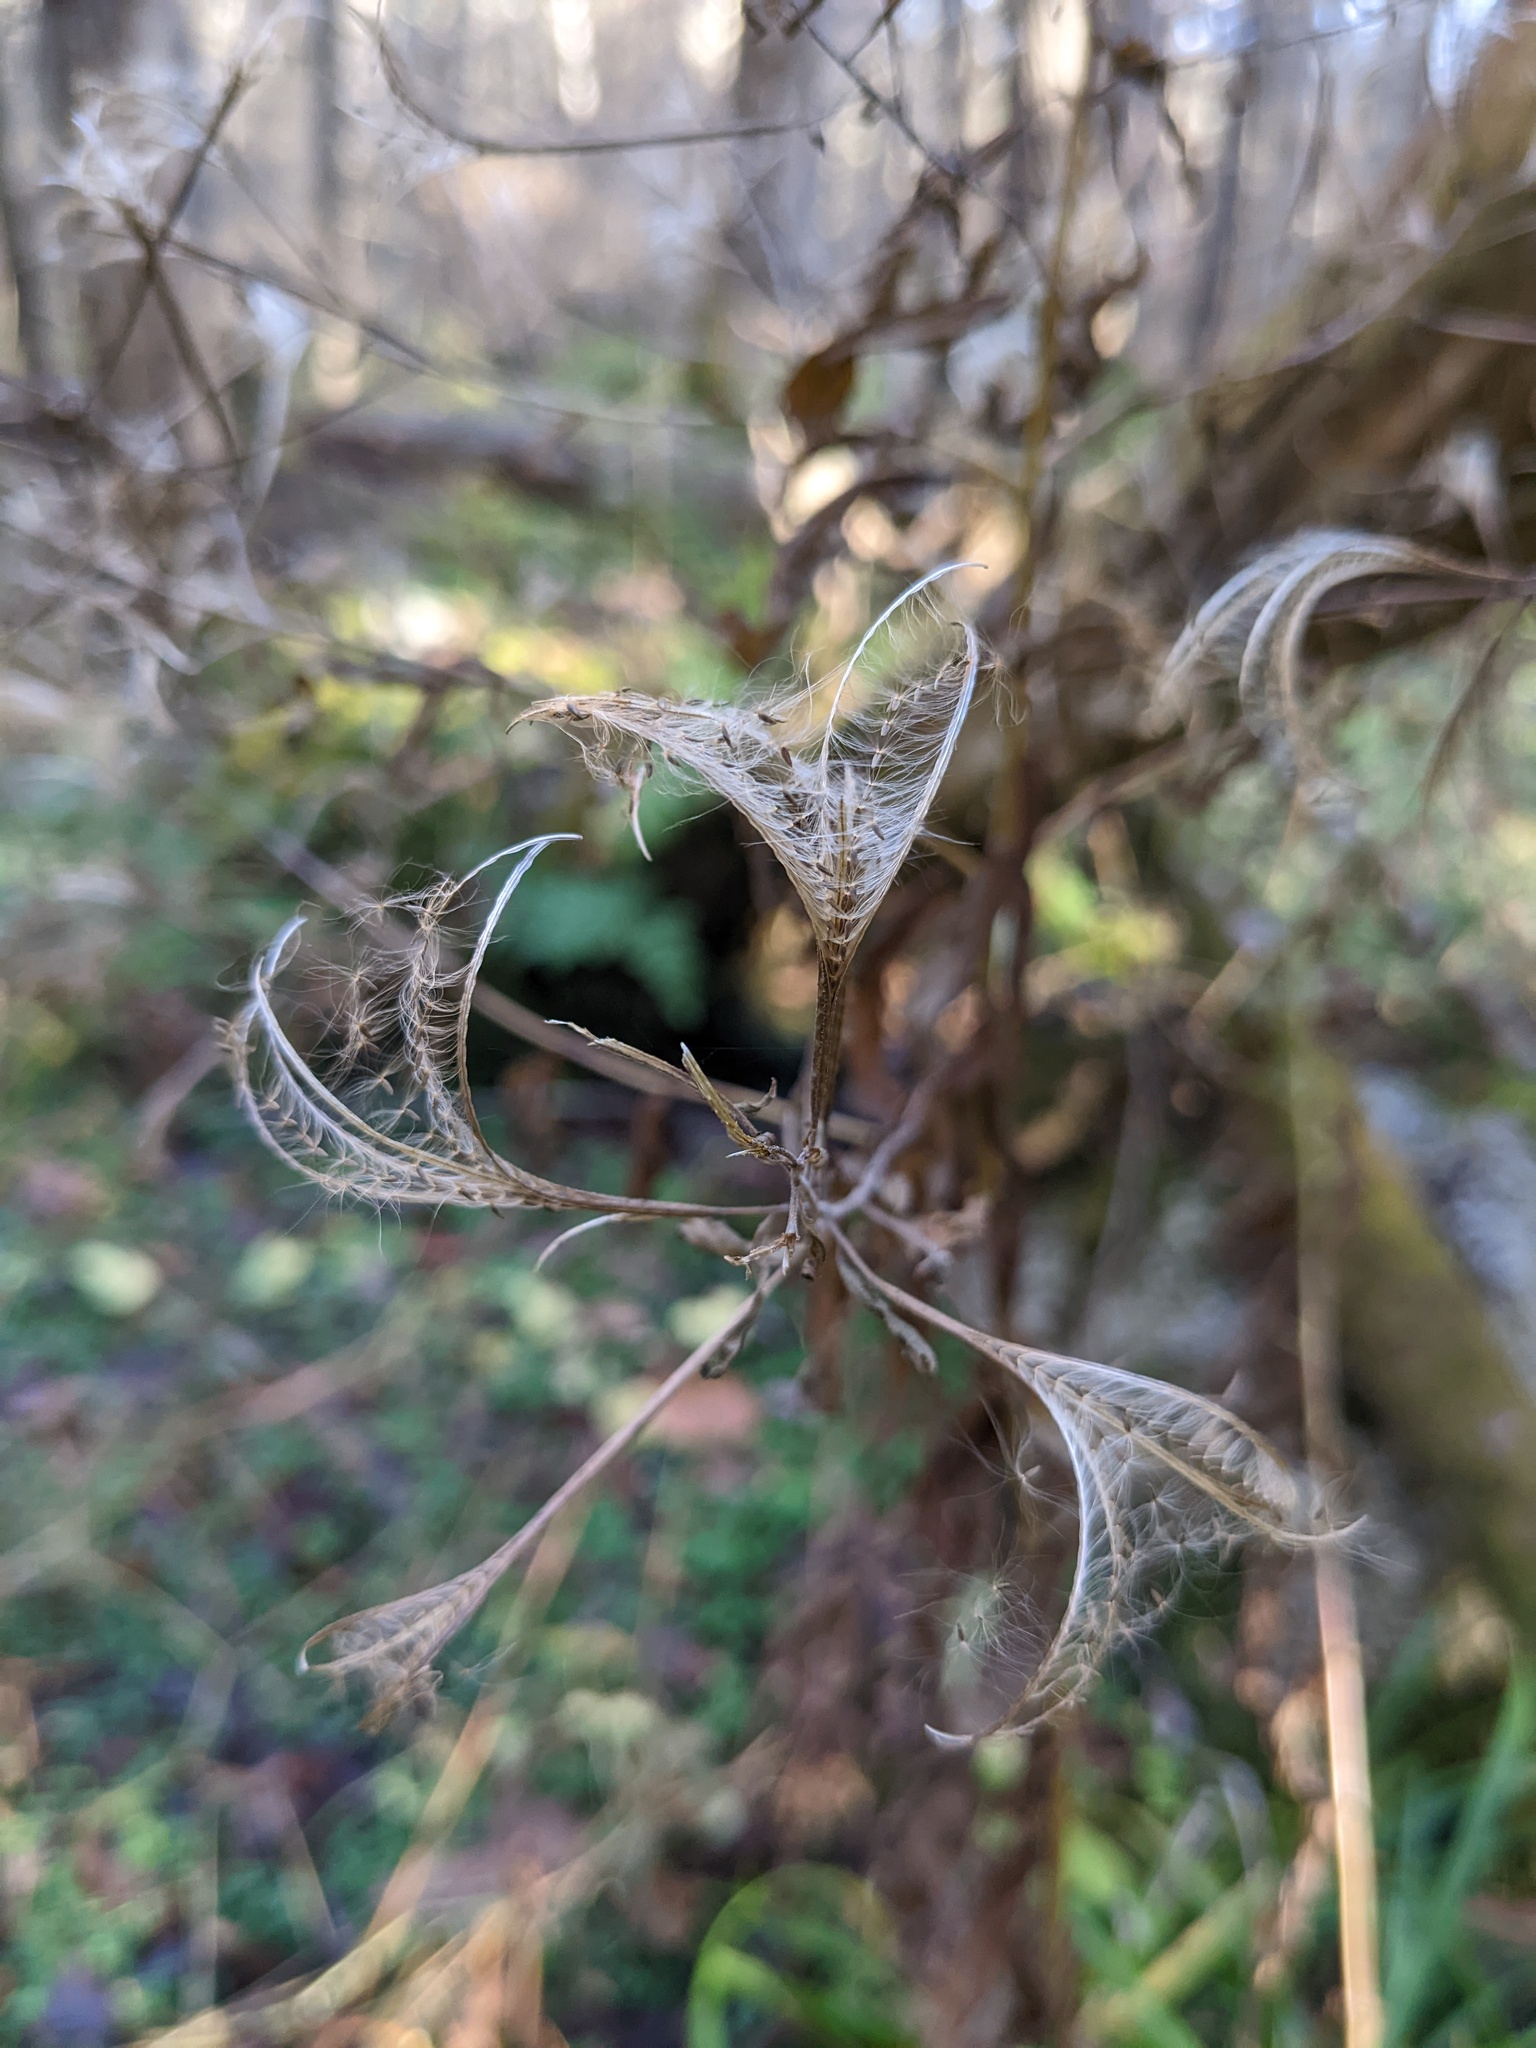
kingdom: Plantae
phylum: Tracheophyta
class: Magnoliopsida
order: Myrtales
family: Onagraceae
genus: Epilobium
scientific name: Epilobium coloratum
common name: Bronze willowherb
